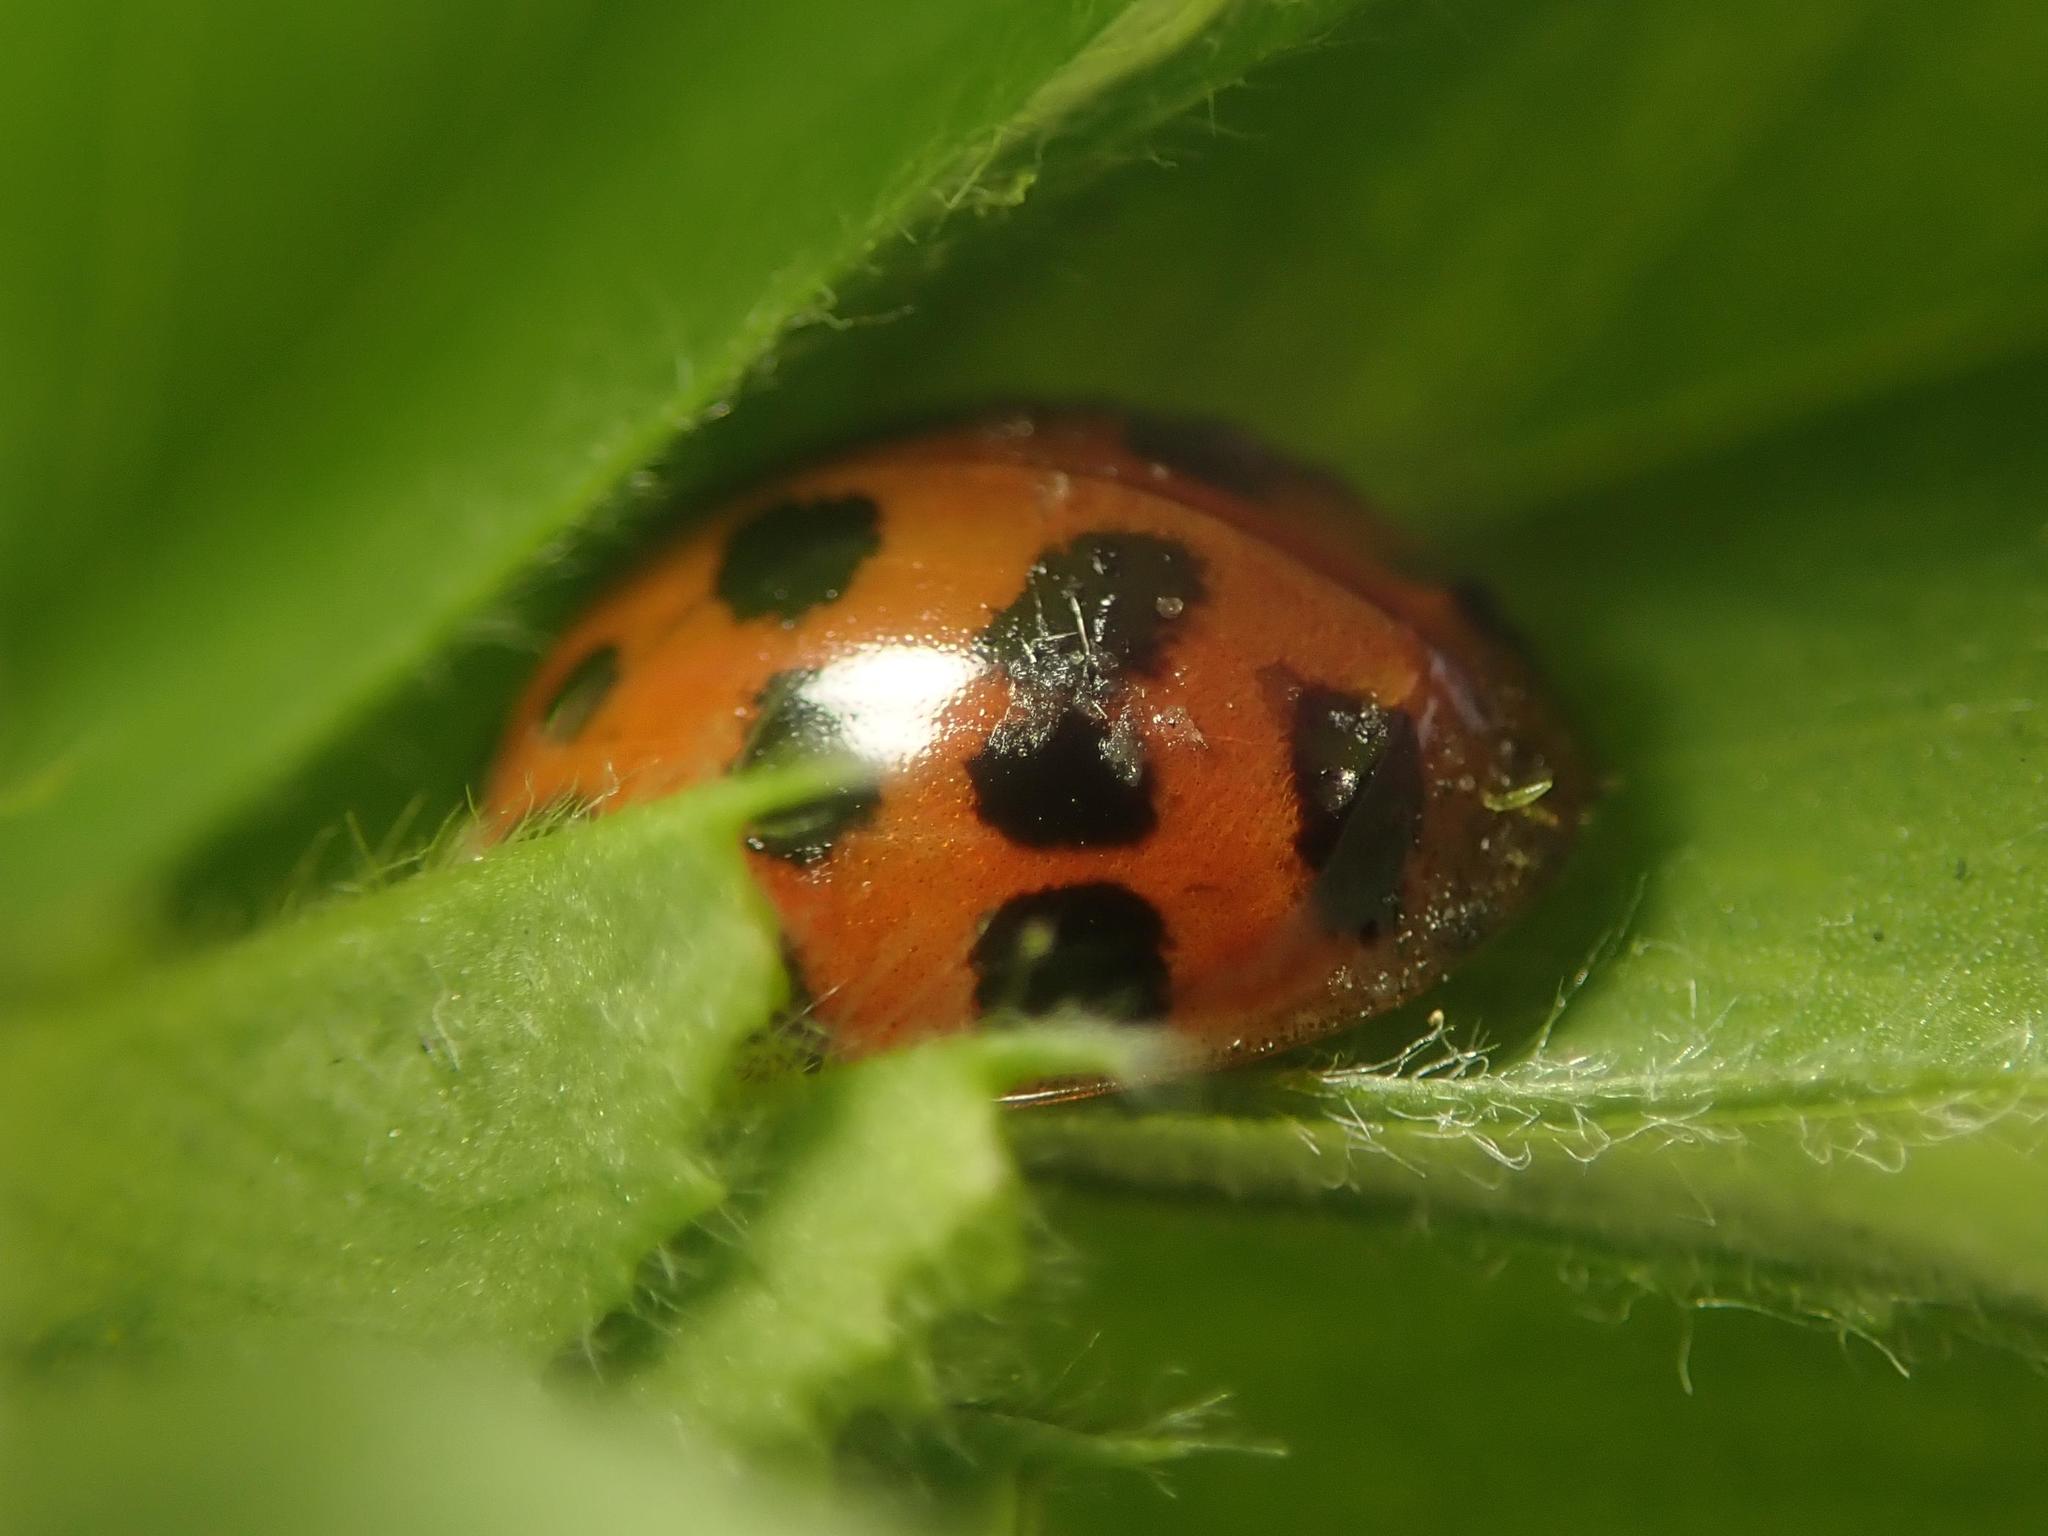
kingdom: Animalia
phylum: Arthropoda
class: Insecta
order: Coleoptera
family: Coccinellidae
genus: Harmonia
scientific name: Harmonia axyridis
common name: Harlequin ladybird
